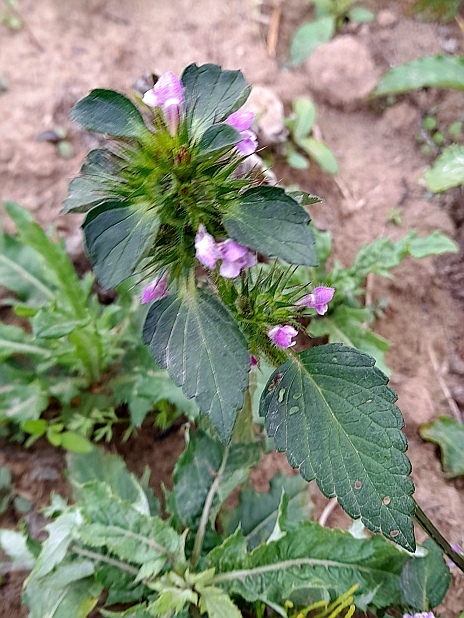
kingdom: Plantae
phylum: Tracheophyta
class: Magnoliopsida
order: Lamiales
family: Lamiaceae
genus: Galeopsis
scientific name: Galeopsis tetrahit
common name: Common hemp-nettle
